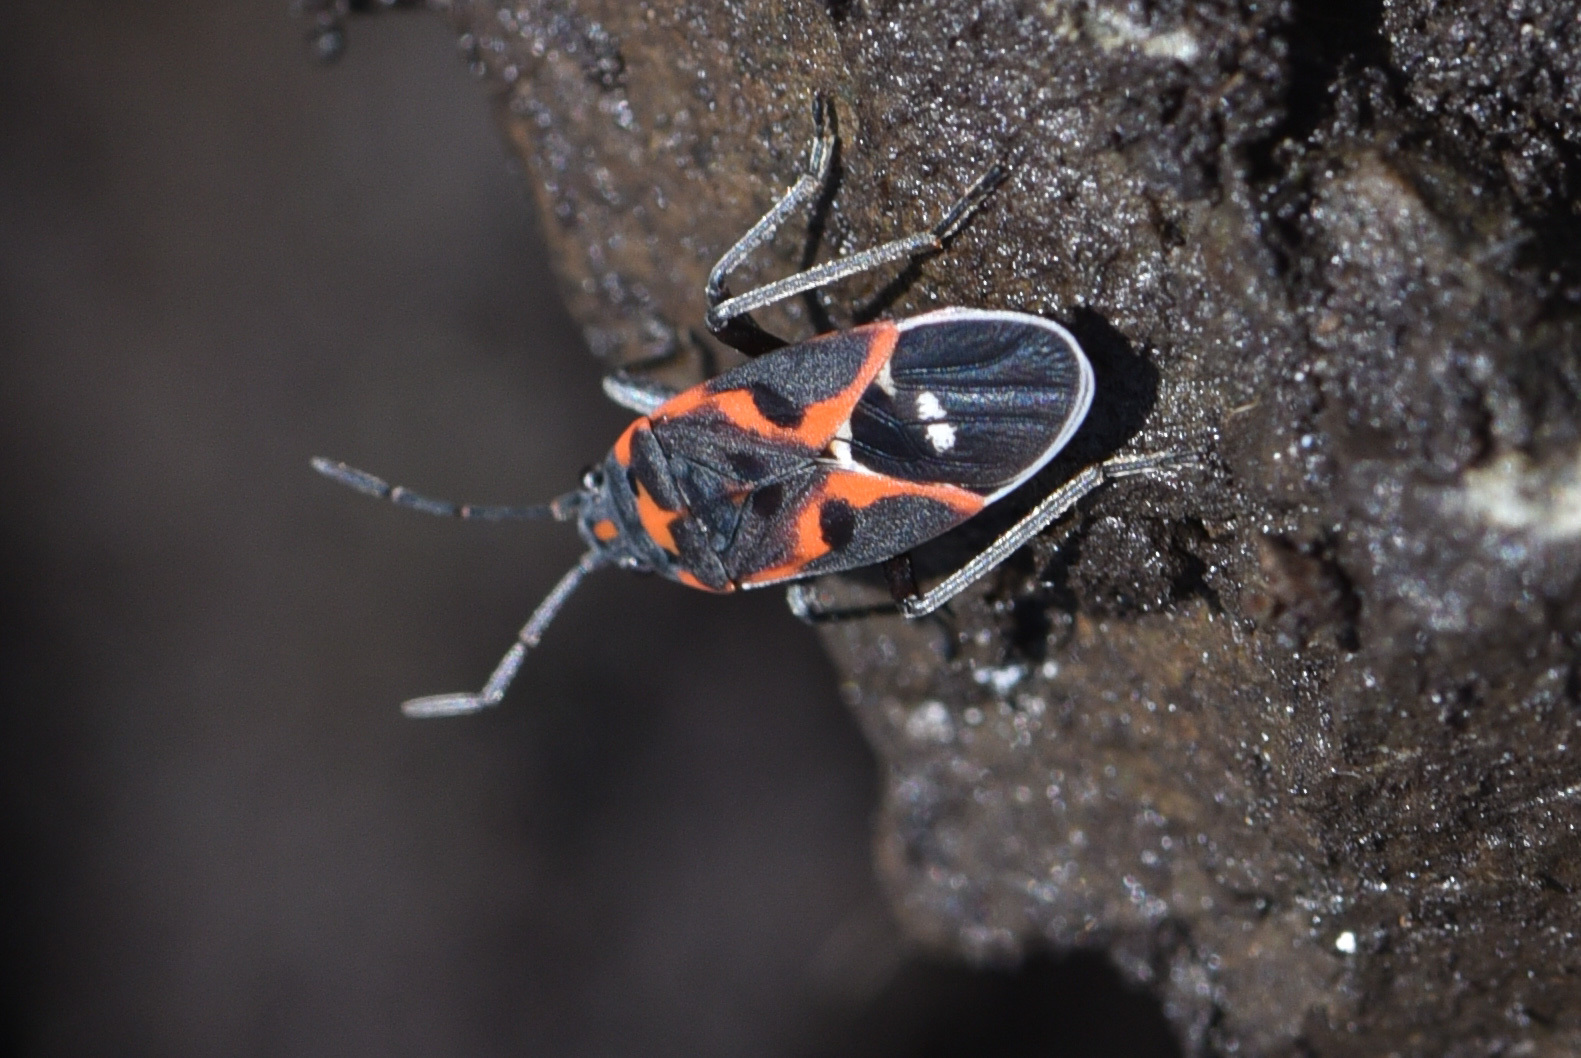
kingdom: Animalia
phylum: Arthropoda
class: Insecta
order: Hemiptera
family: Lygaeidae
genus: Lygaeus
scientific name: Lygaeus kalmii
